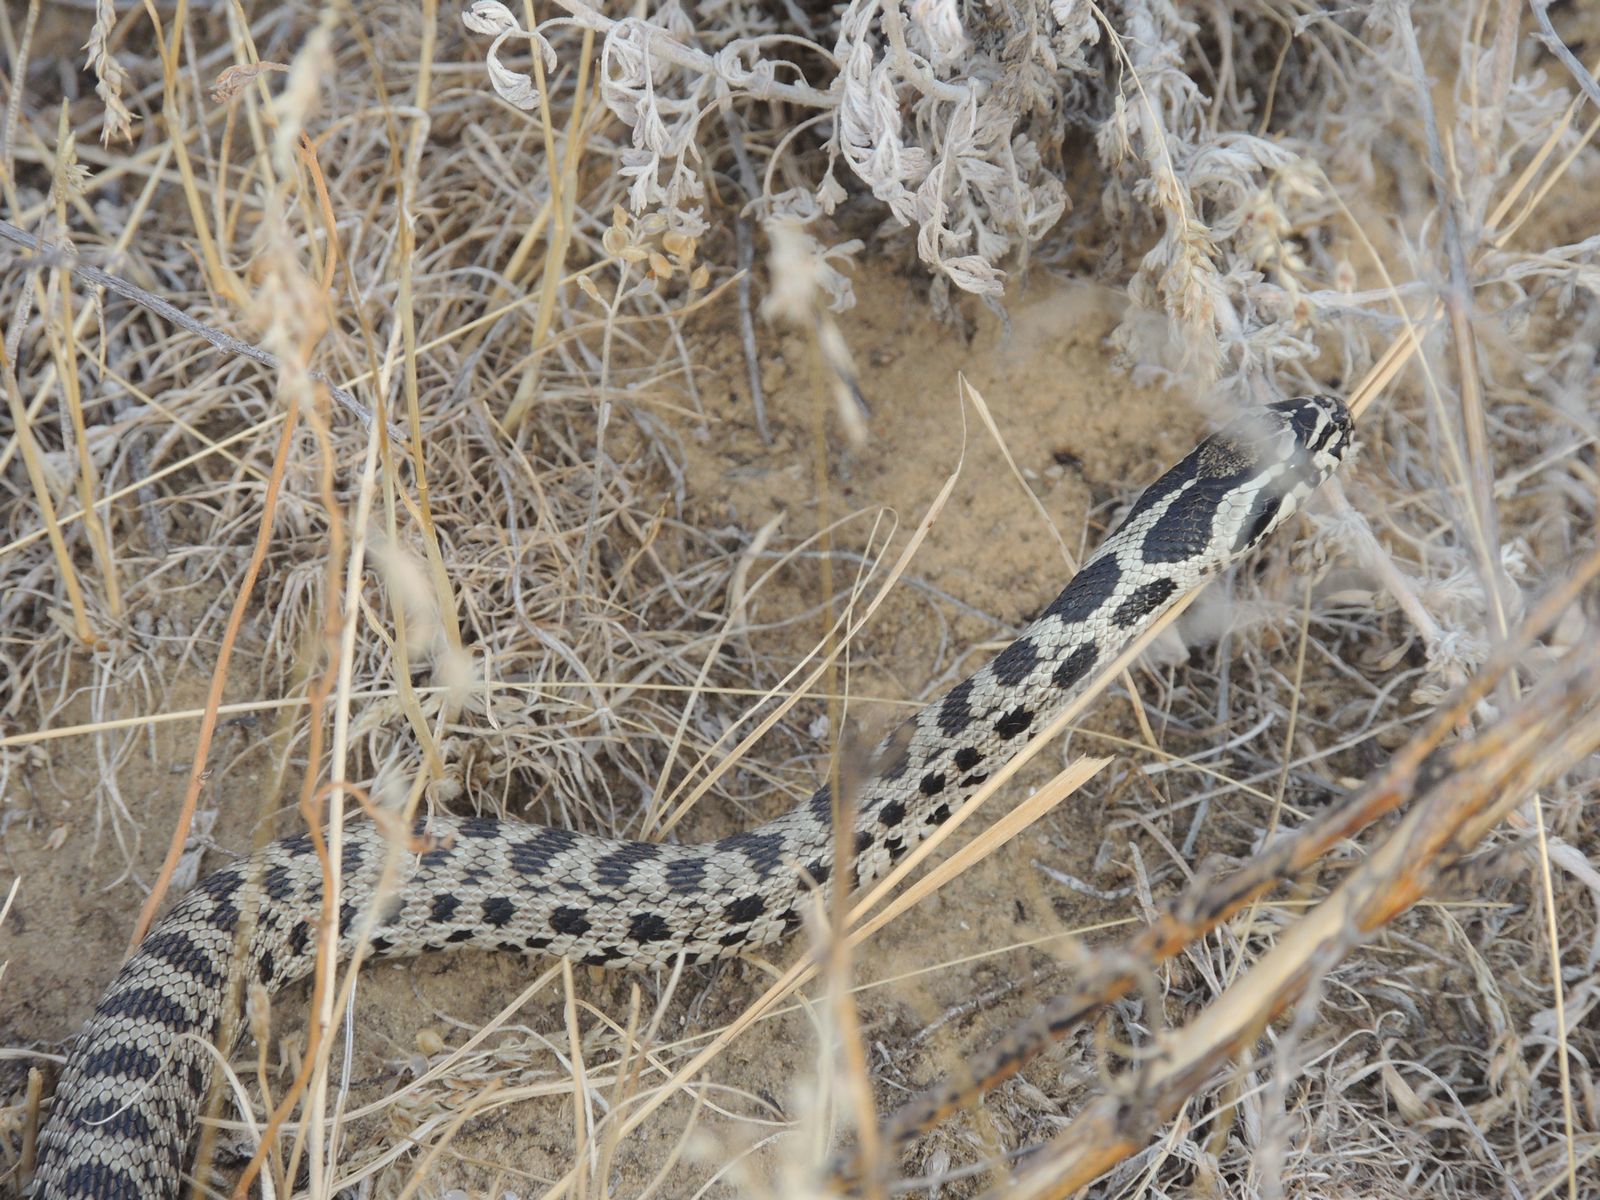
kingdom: Animalia
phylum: Chordata
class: Squamata
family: Colubridae
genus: Elaphe
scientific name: Elaphe sauromates
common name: Eastern four-lined ratsnake
